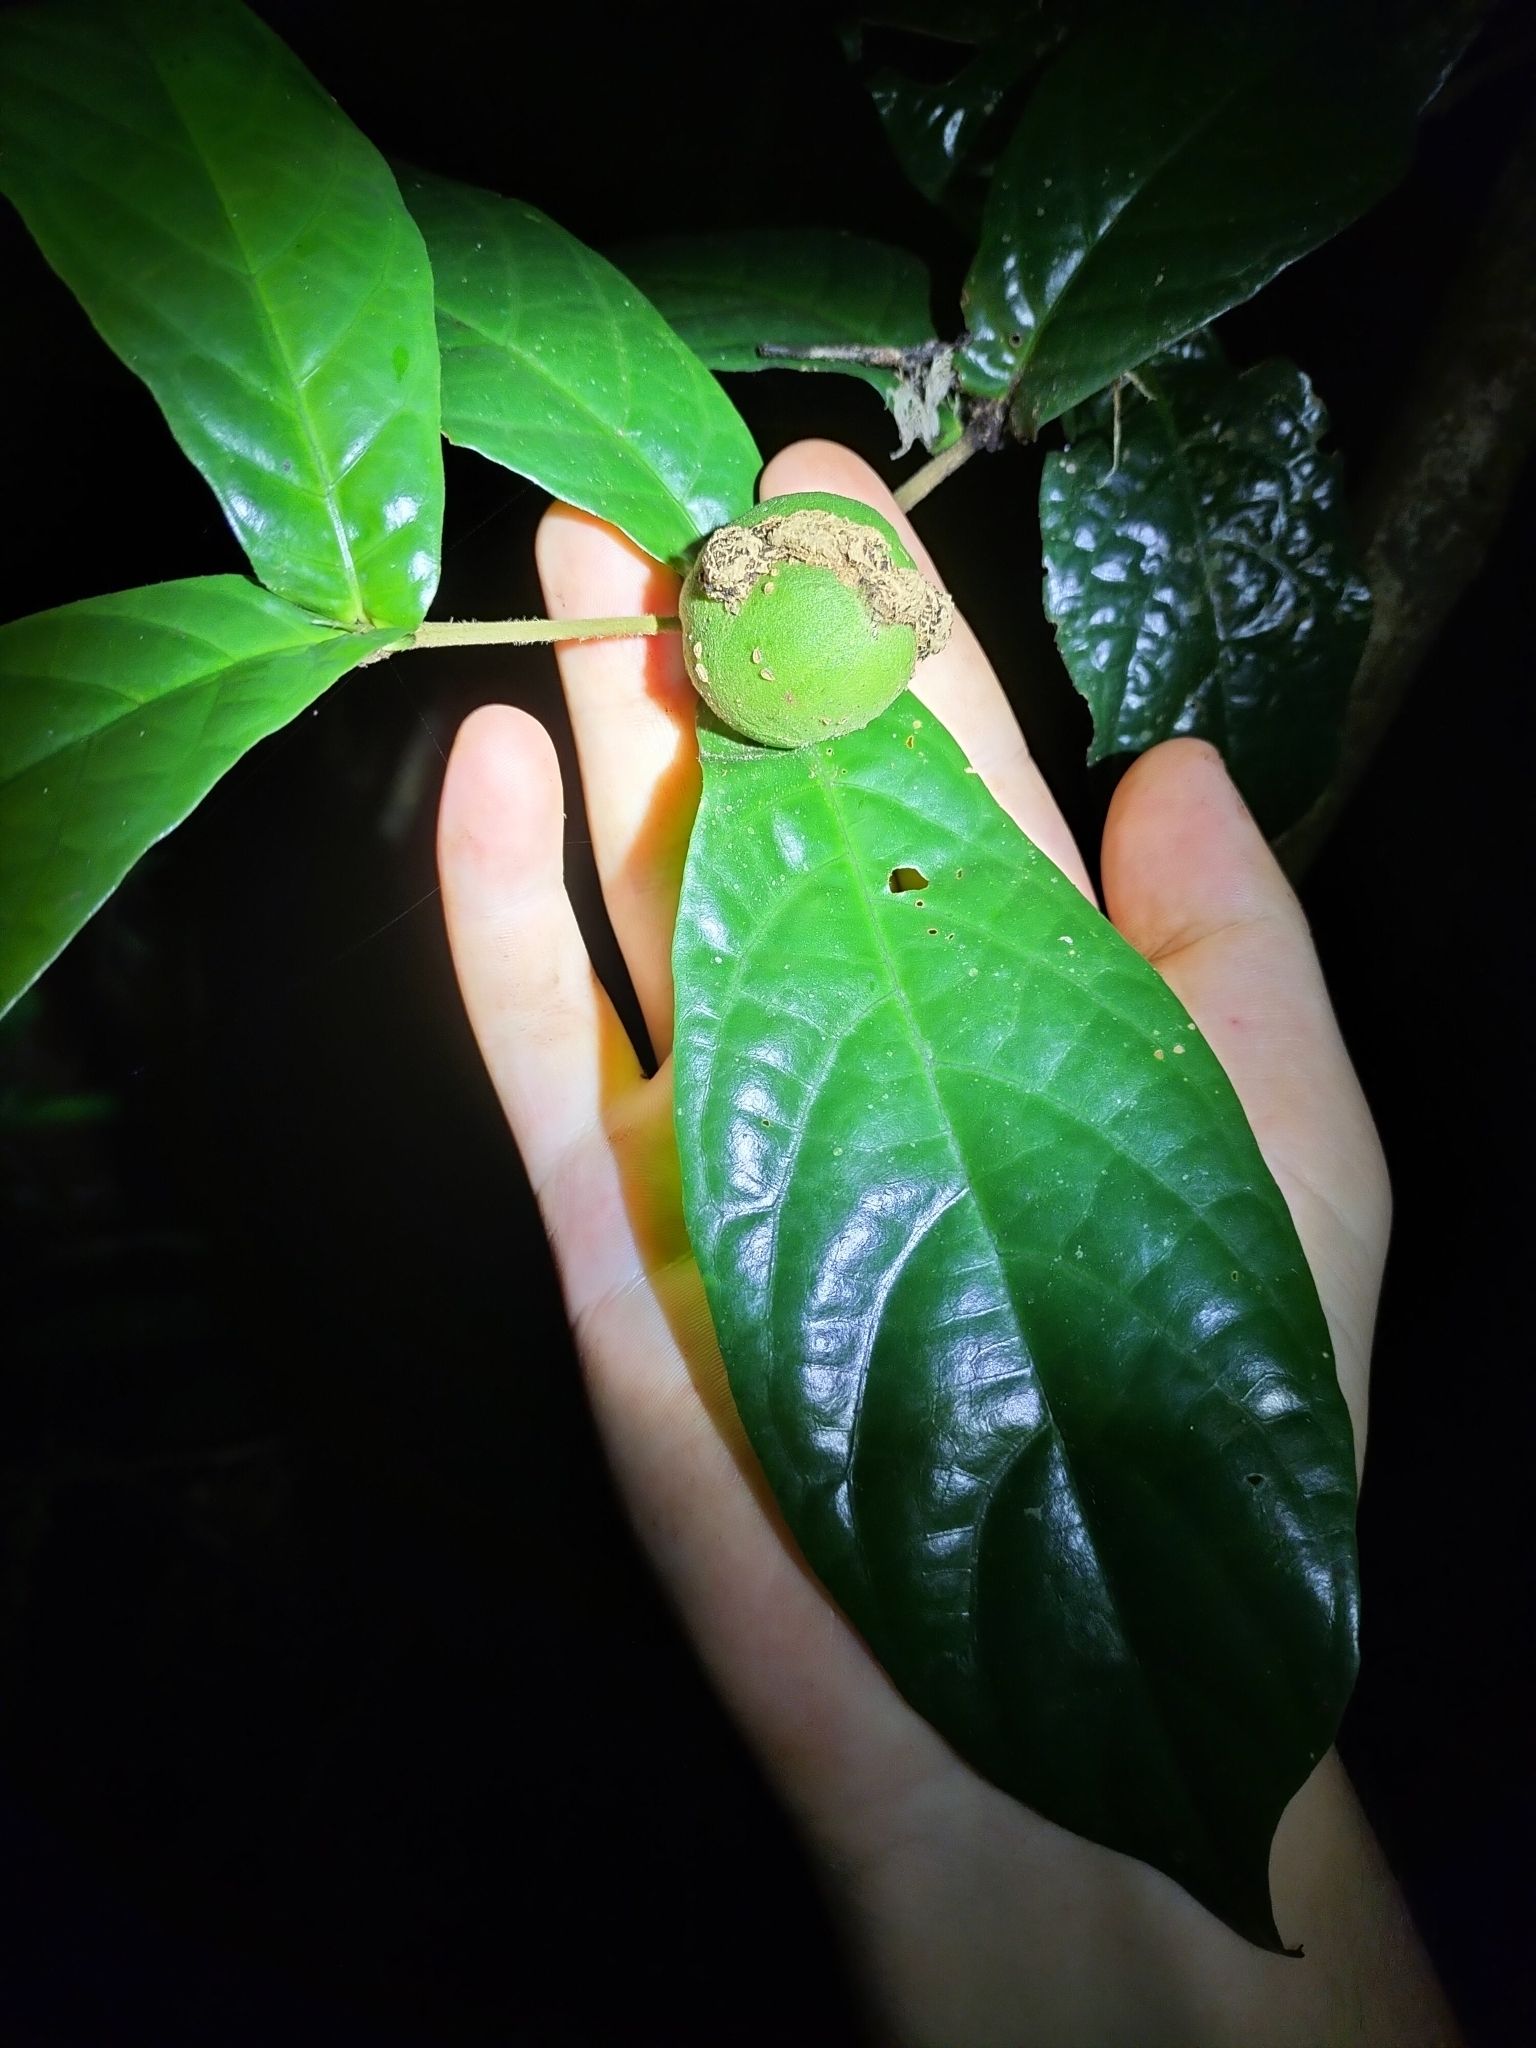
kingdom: Plantae
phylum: Tracheophyta
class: Magnoliopsida
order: Gentianales
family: Rubiaceae
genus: Atractocarpus
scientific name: Atractocarpus merikin
